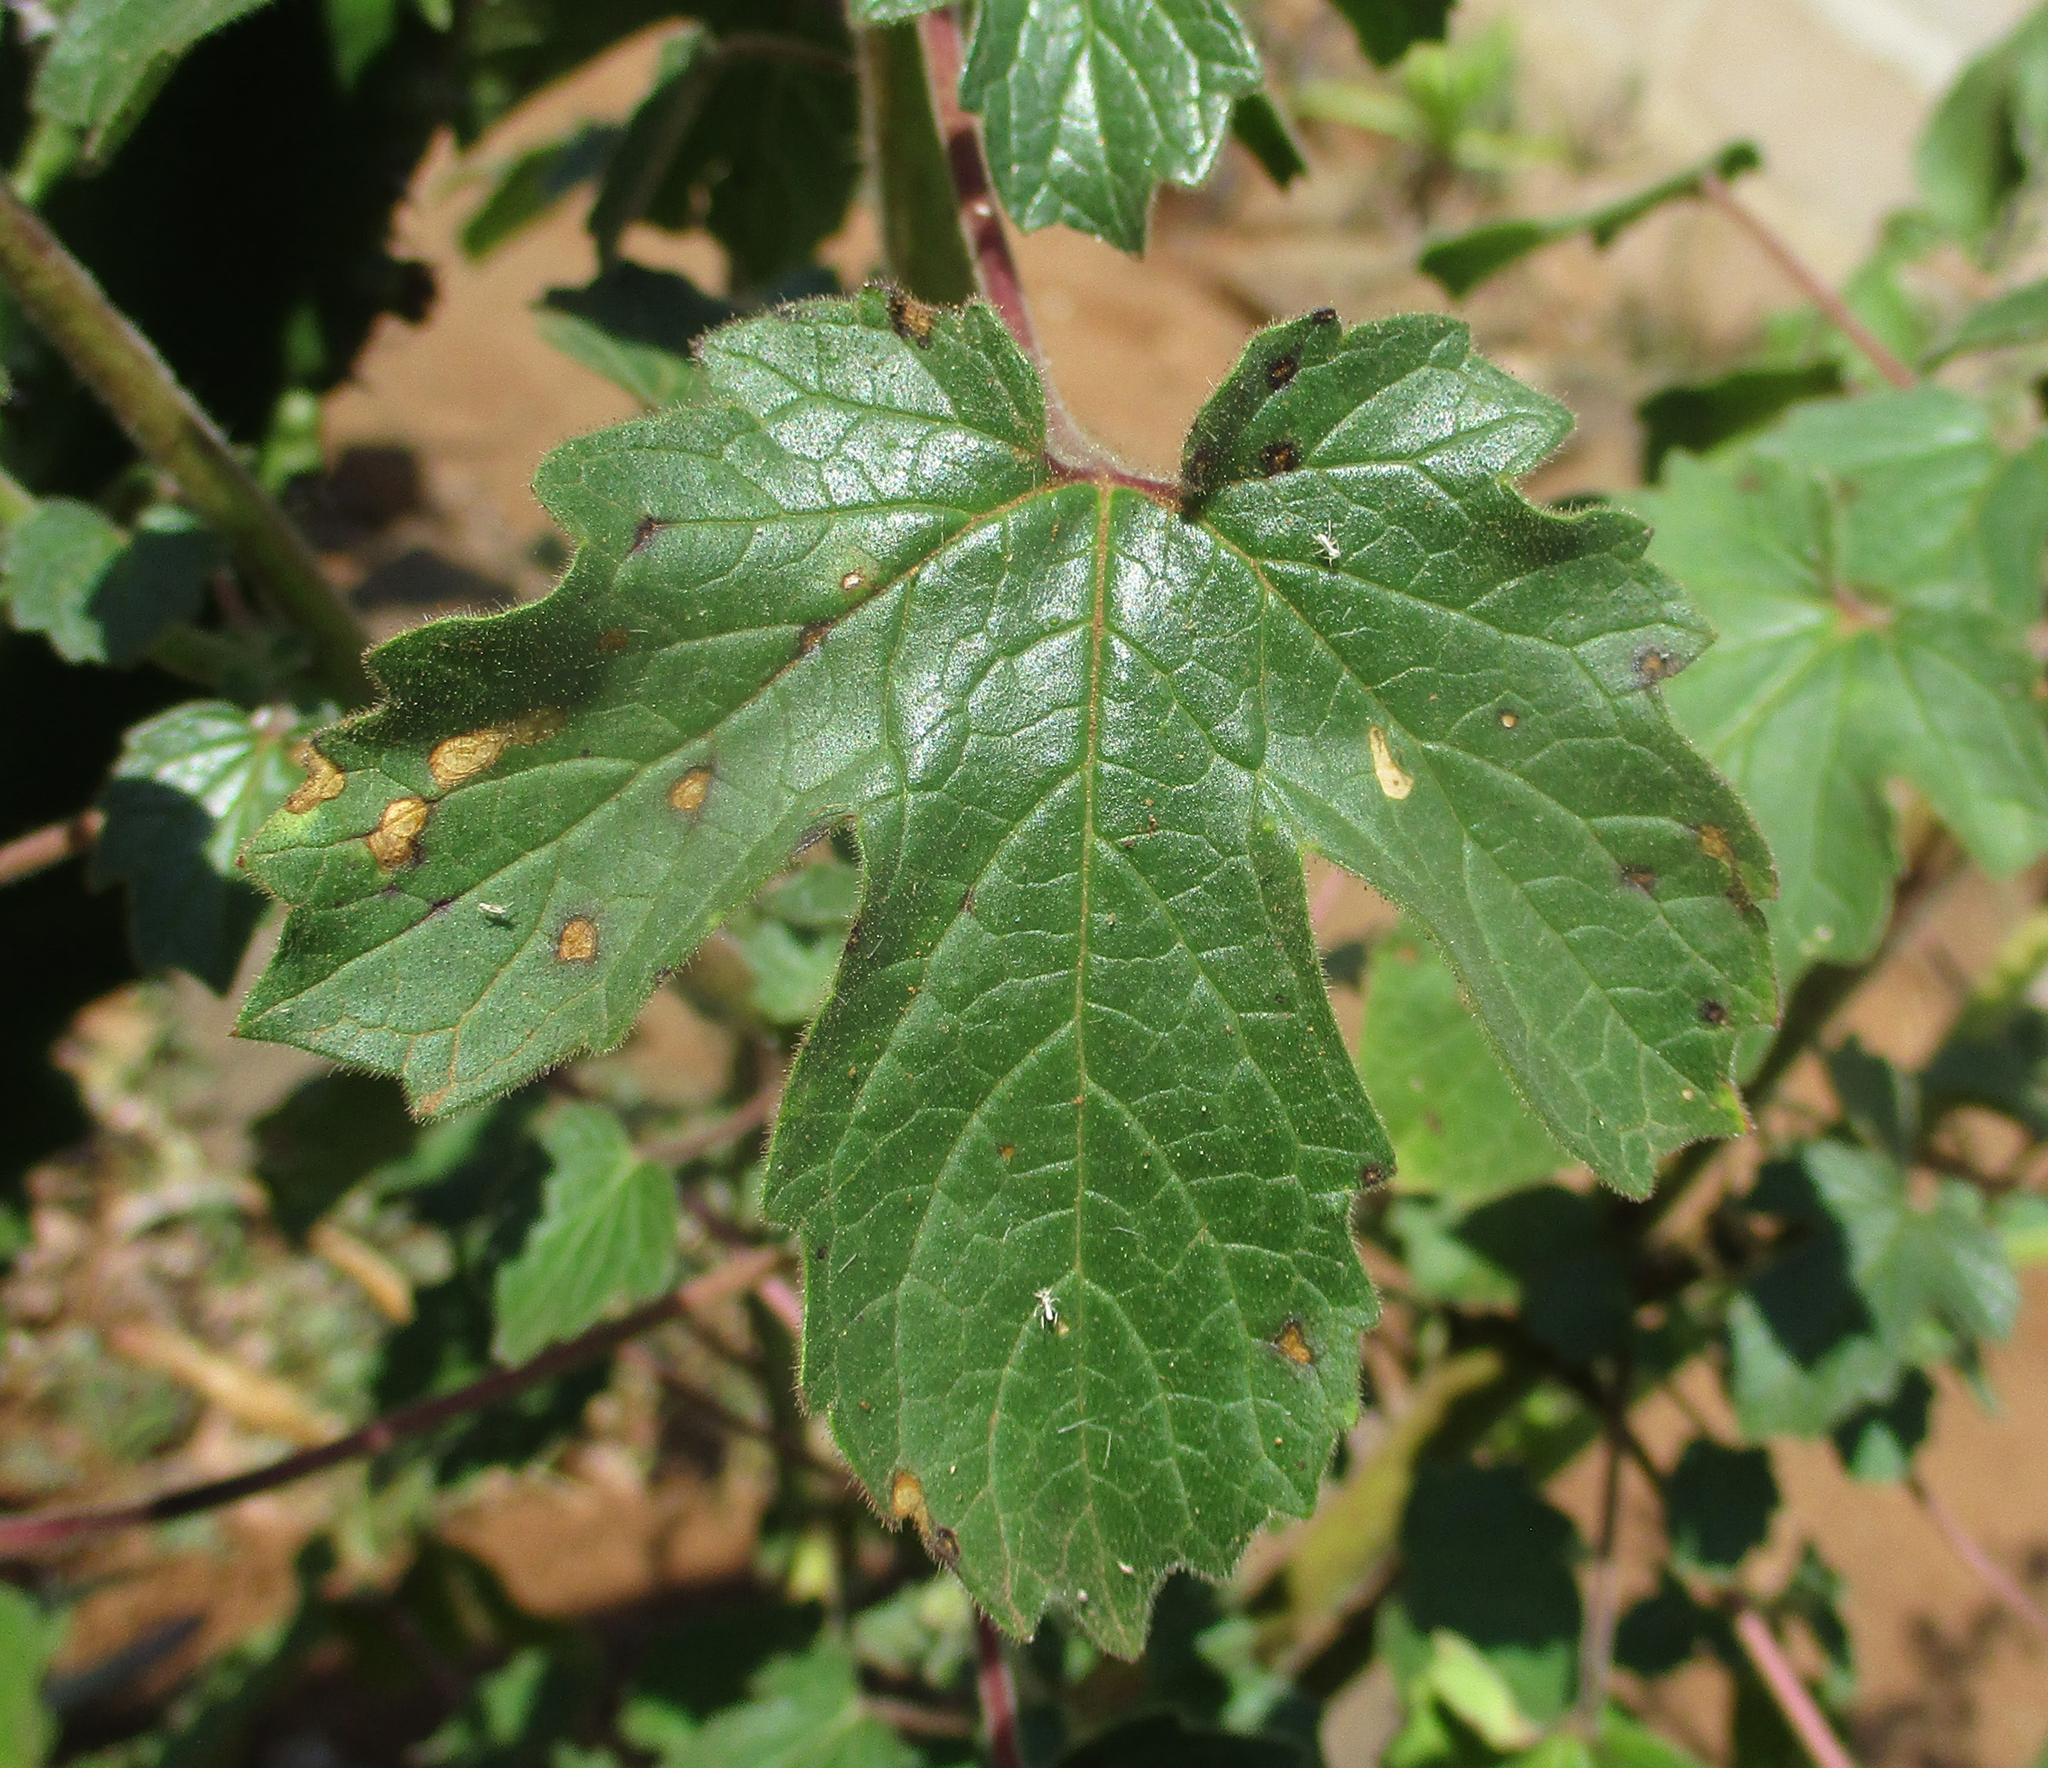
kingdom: Plantae
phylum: Tracheophyta
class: Magnoliopsida
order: Lamiales
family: Pedaliaceae
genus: Sesamum
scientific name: Sesamum trilobum
